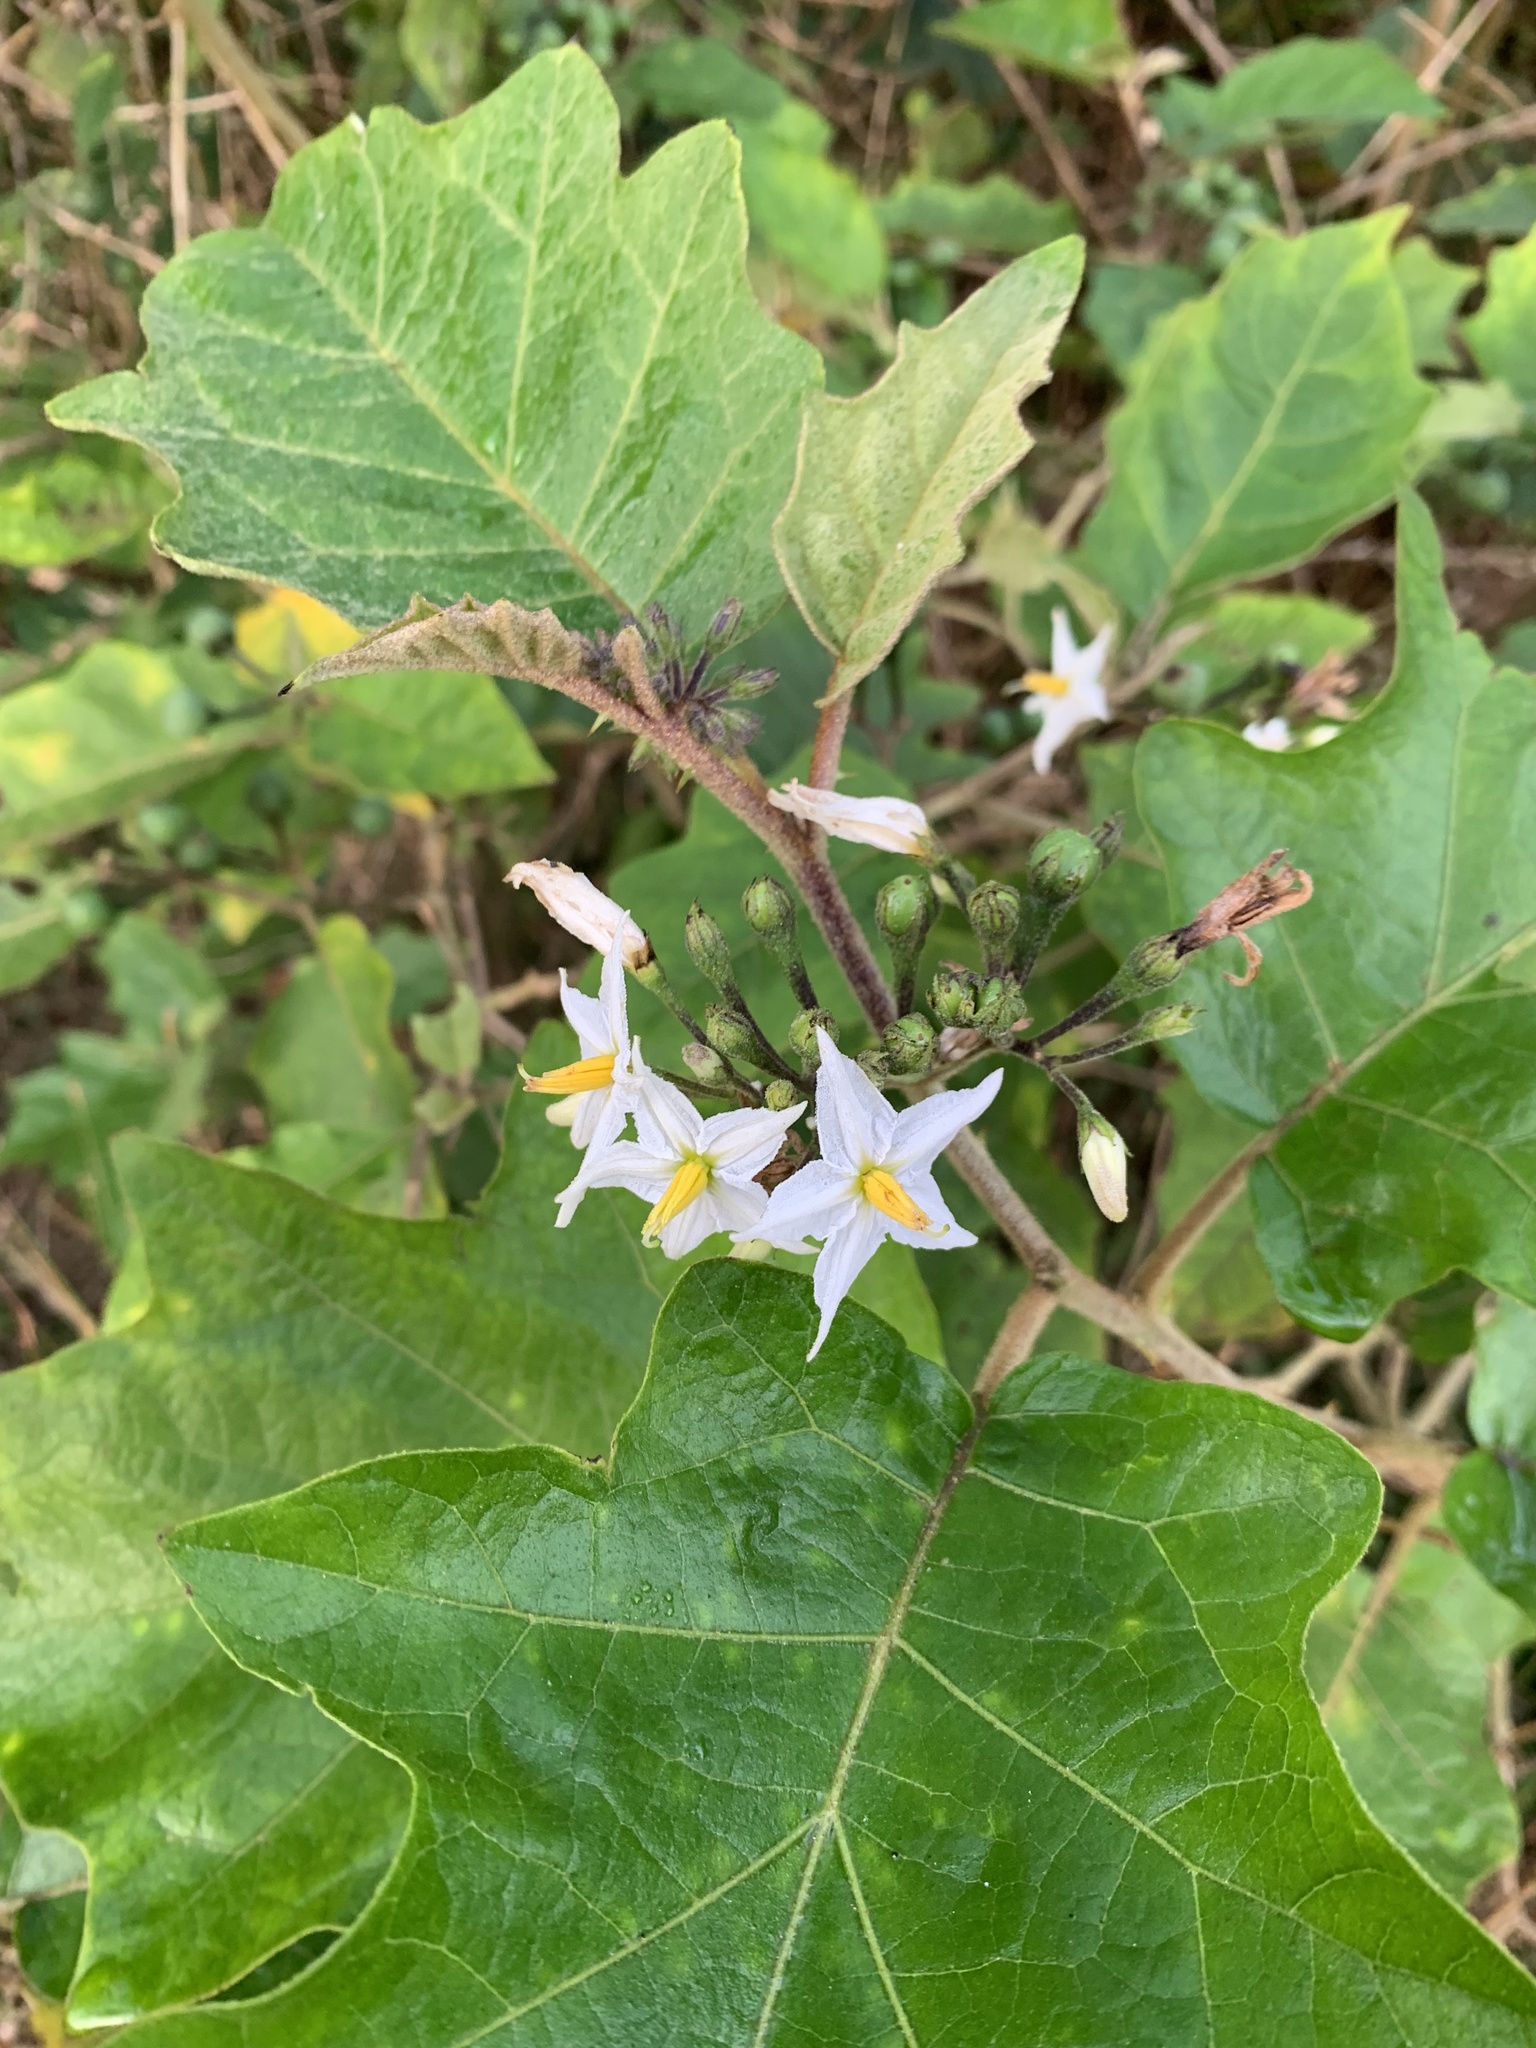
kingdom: Plantae
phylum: Tracheophyta
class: Magnoliopsida
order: Solanales
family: Solanaceae
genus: Solanum
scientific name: Solanum torvum
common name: Turkey berry
